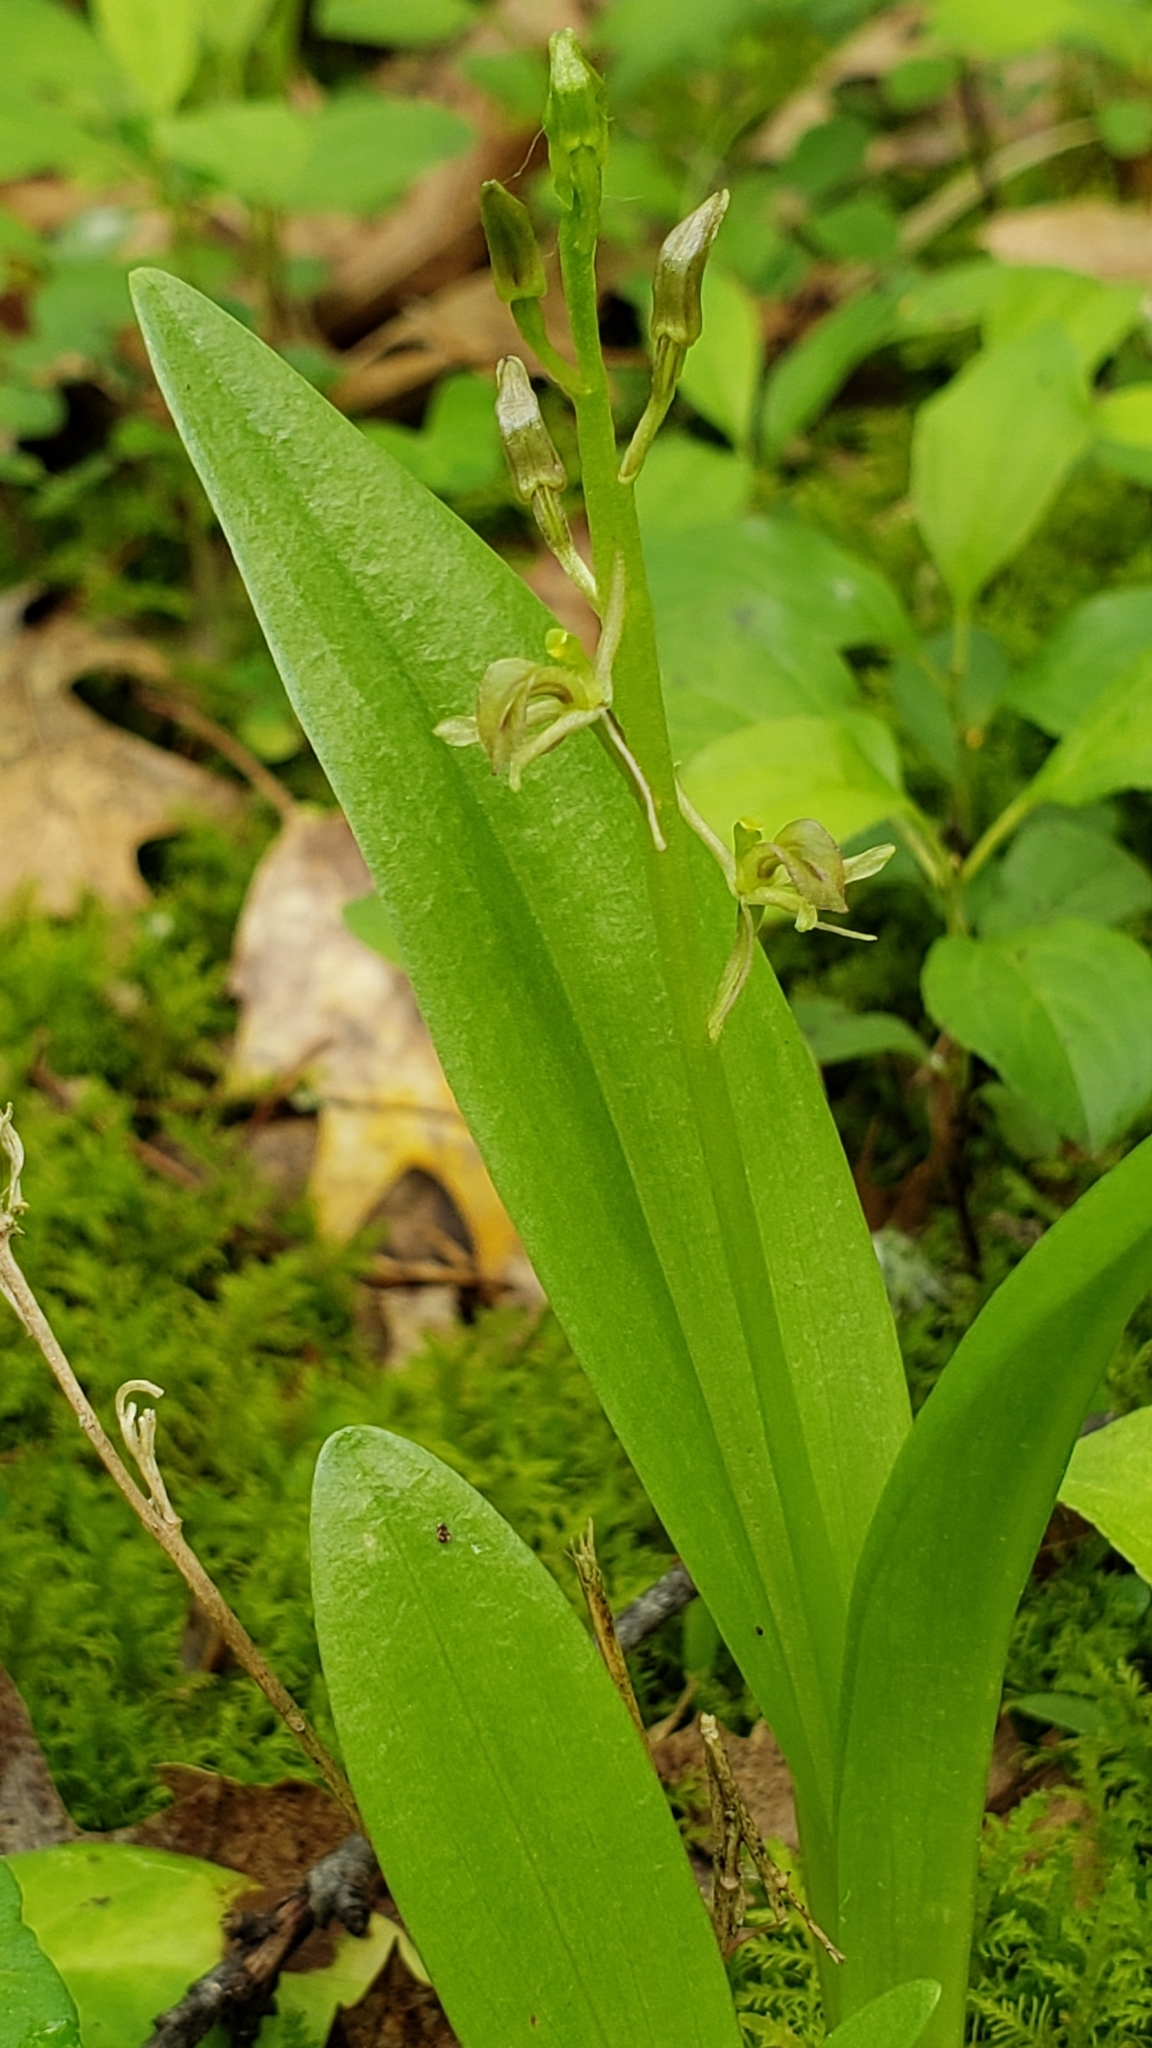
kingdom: Animalia
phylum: Arthropoda
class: Insecta
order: Coleoptera
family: Curculionidae
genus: Liparis
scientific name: Liparis loeselii
